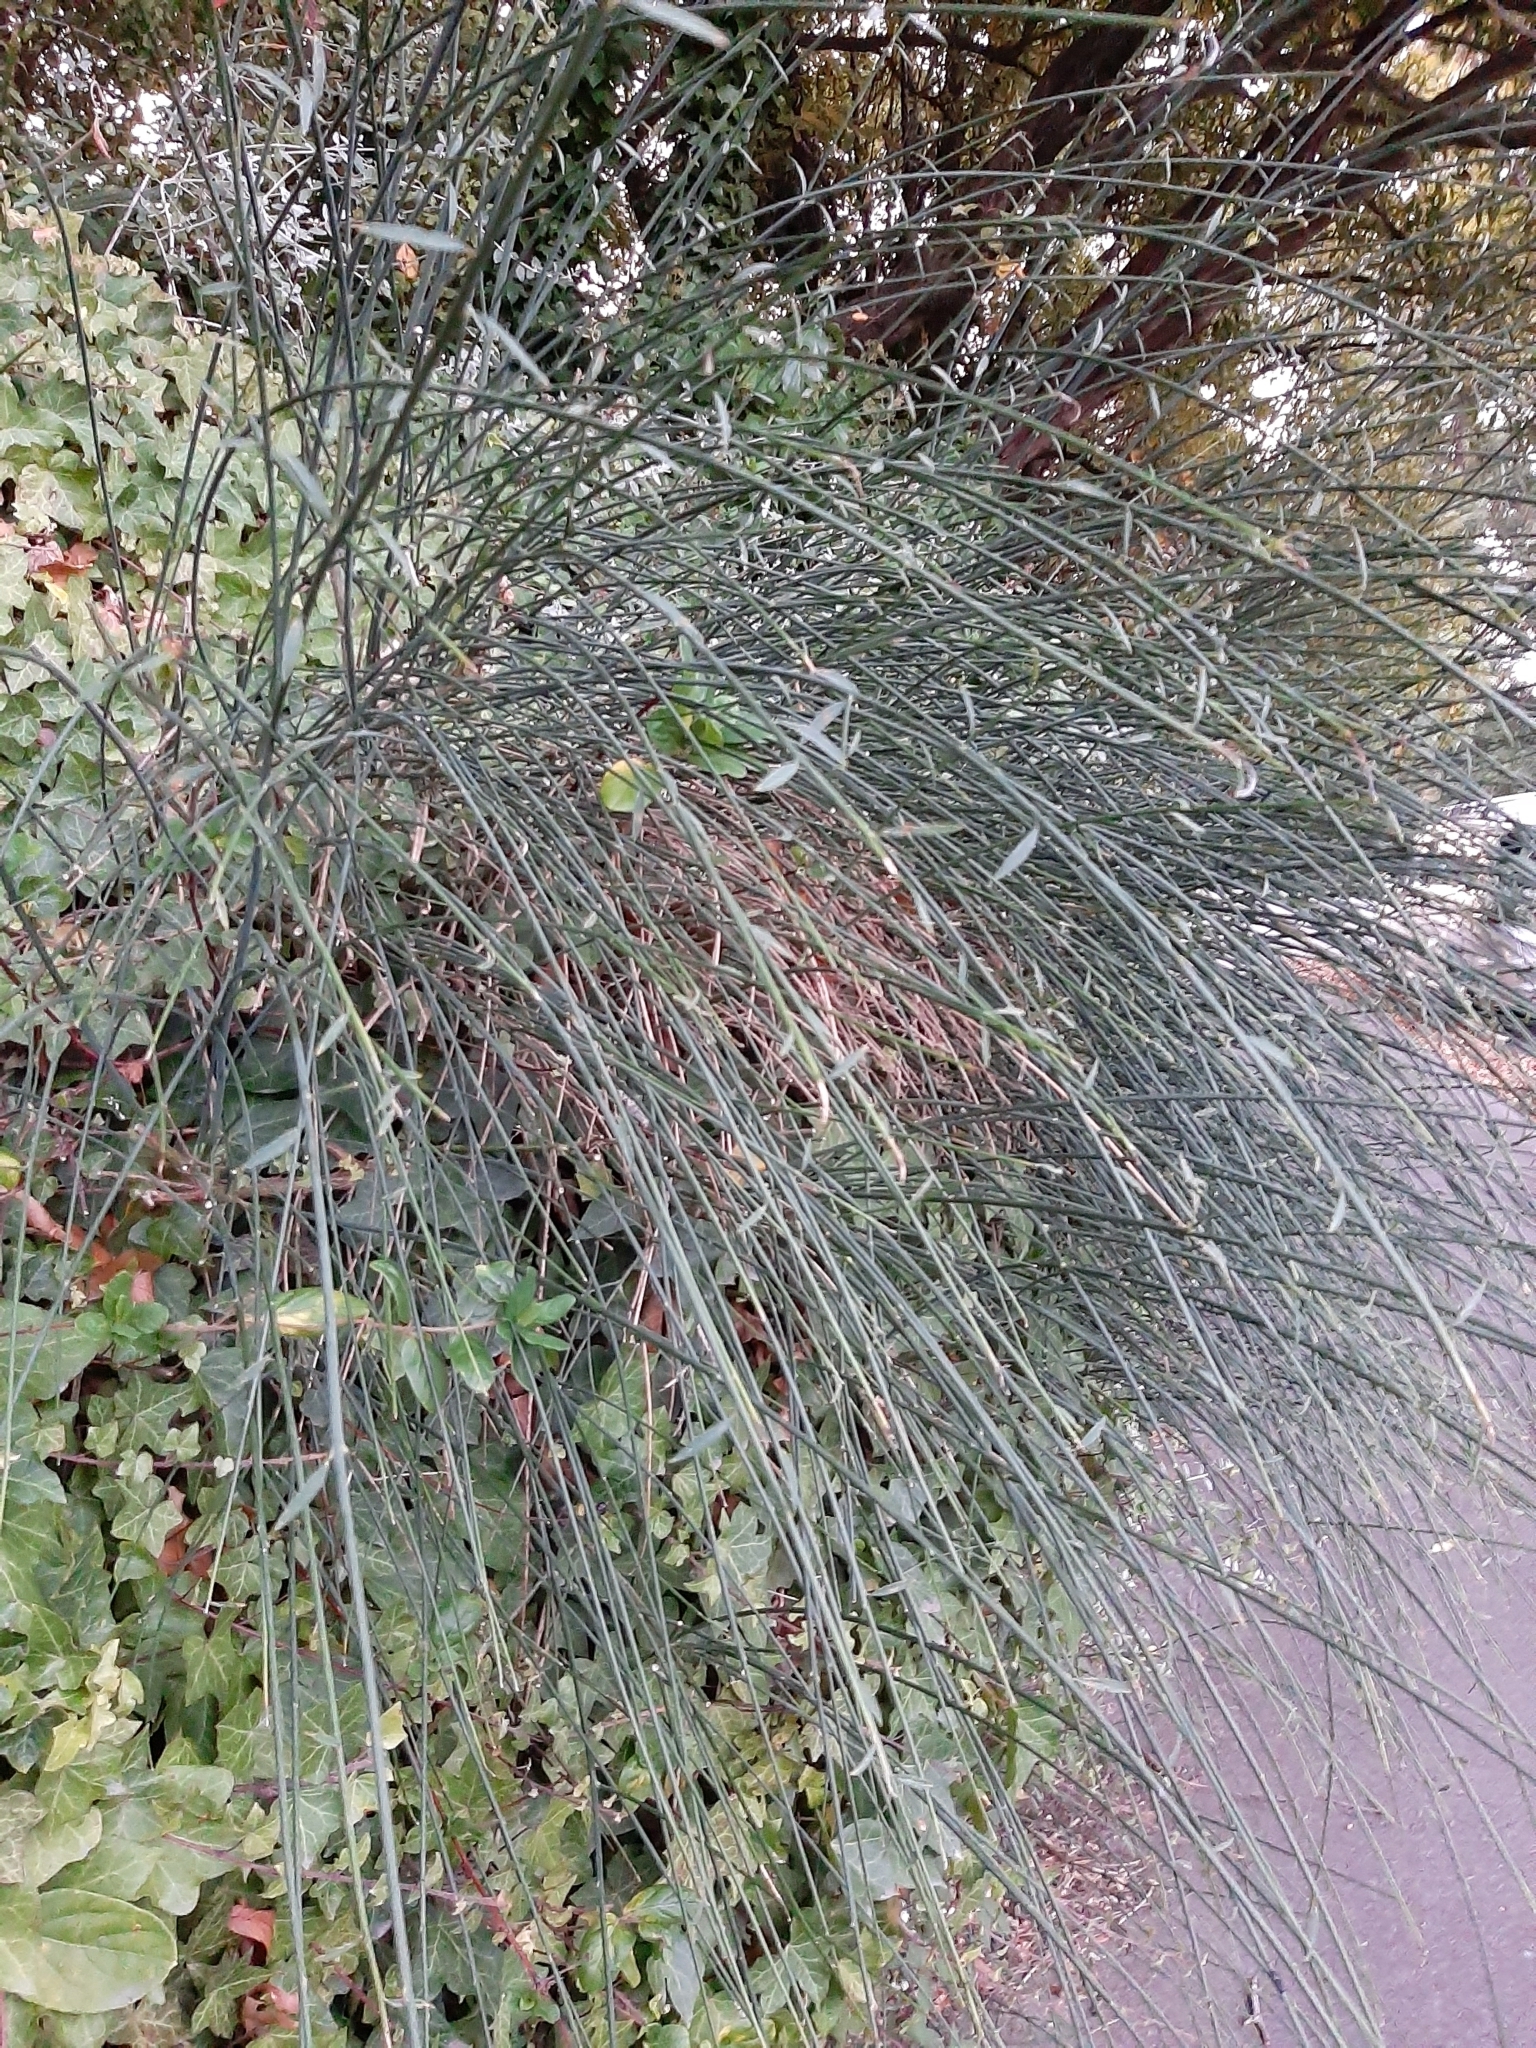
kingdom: Plantae
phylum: Tracheophyta
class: Magnoliopsida
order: Fabales
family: Fabaceae
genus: Spartium
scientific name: Spartium junceum
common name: Spanish broom
